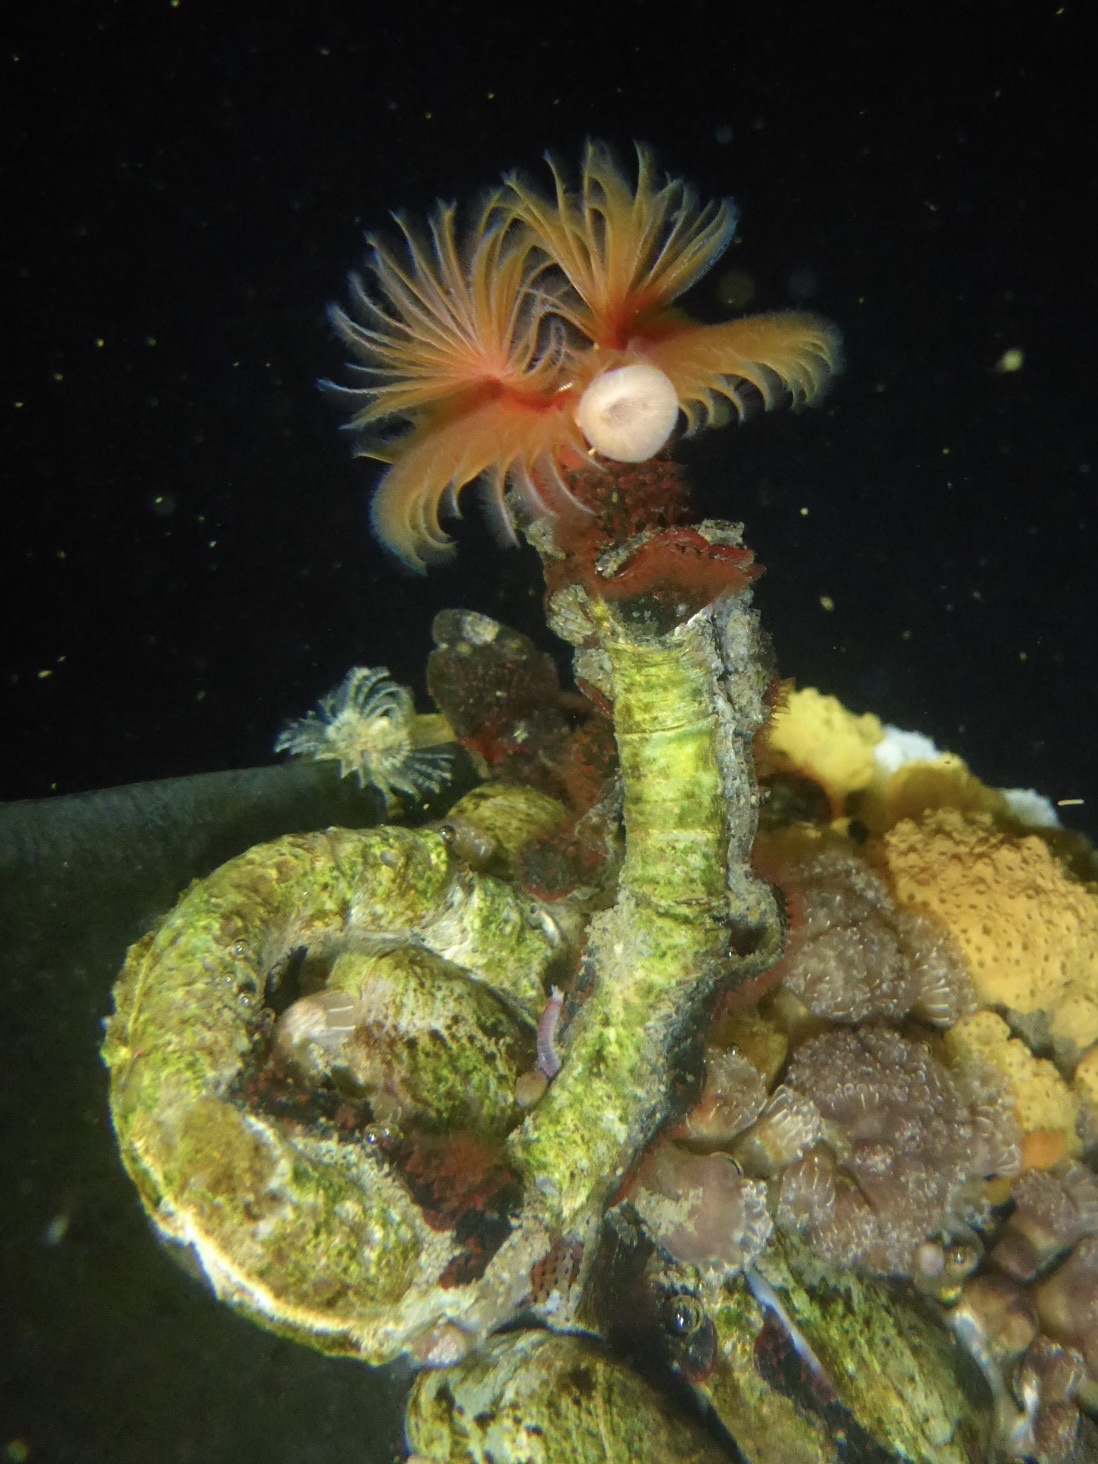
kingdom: Animalia
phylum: Annelida
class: Polychaeta
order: Sabellida
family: Serpulidae
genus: Serpula
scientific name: Serpula columbiana
